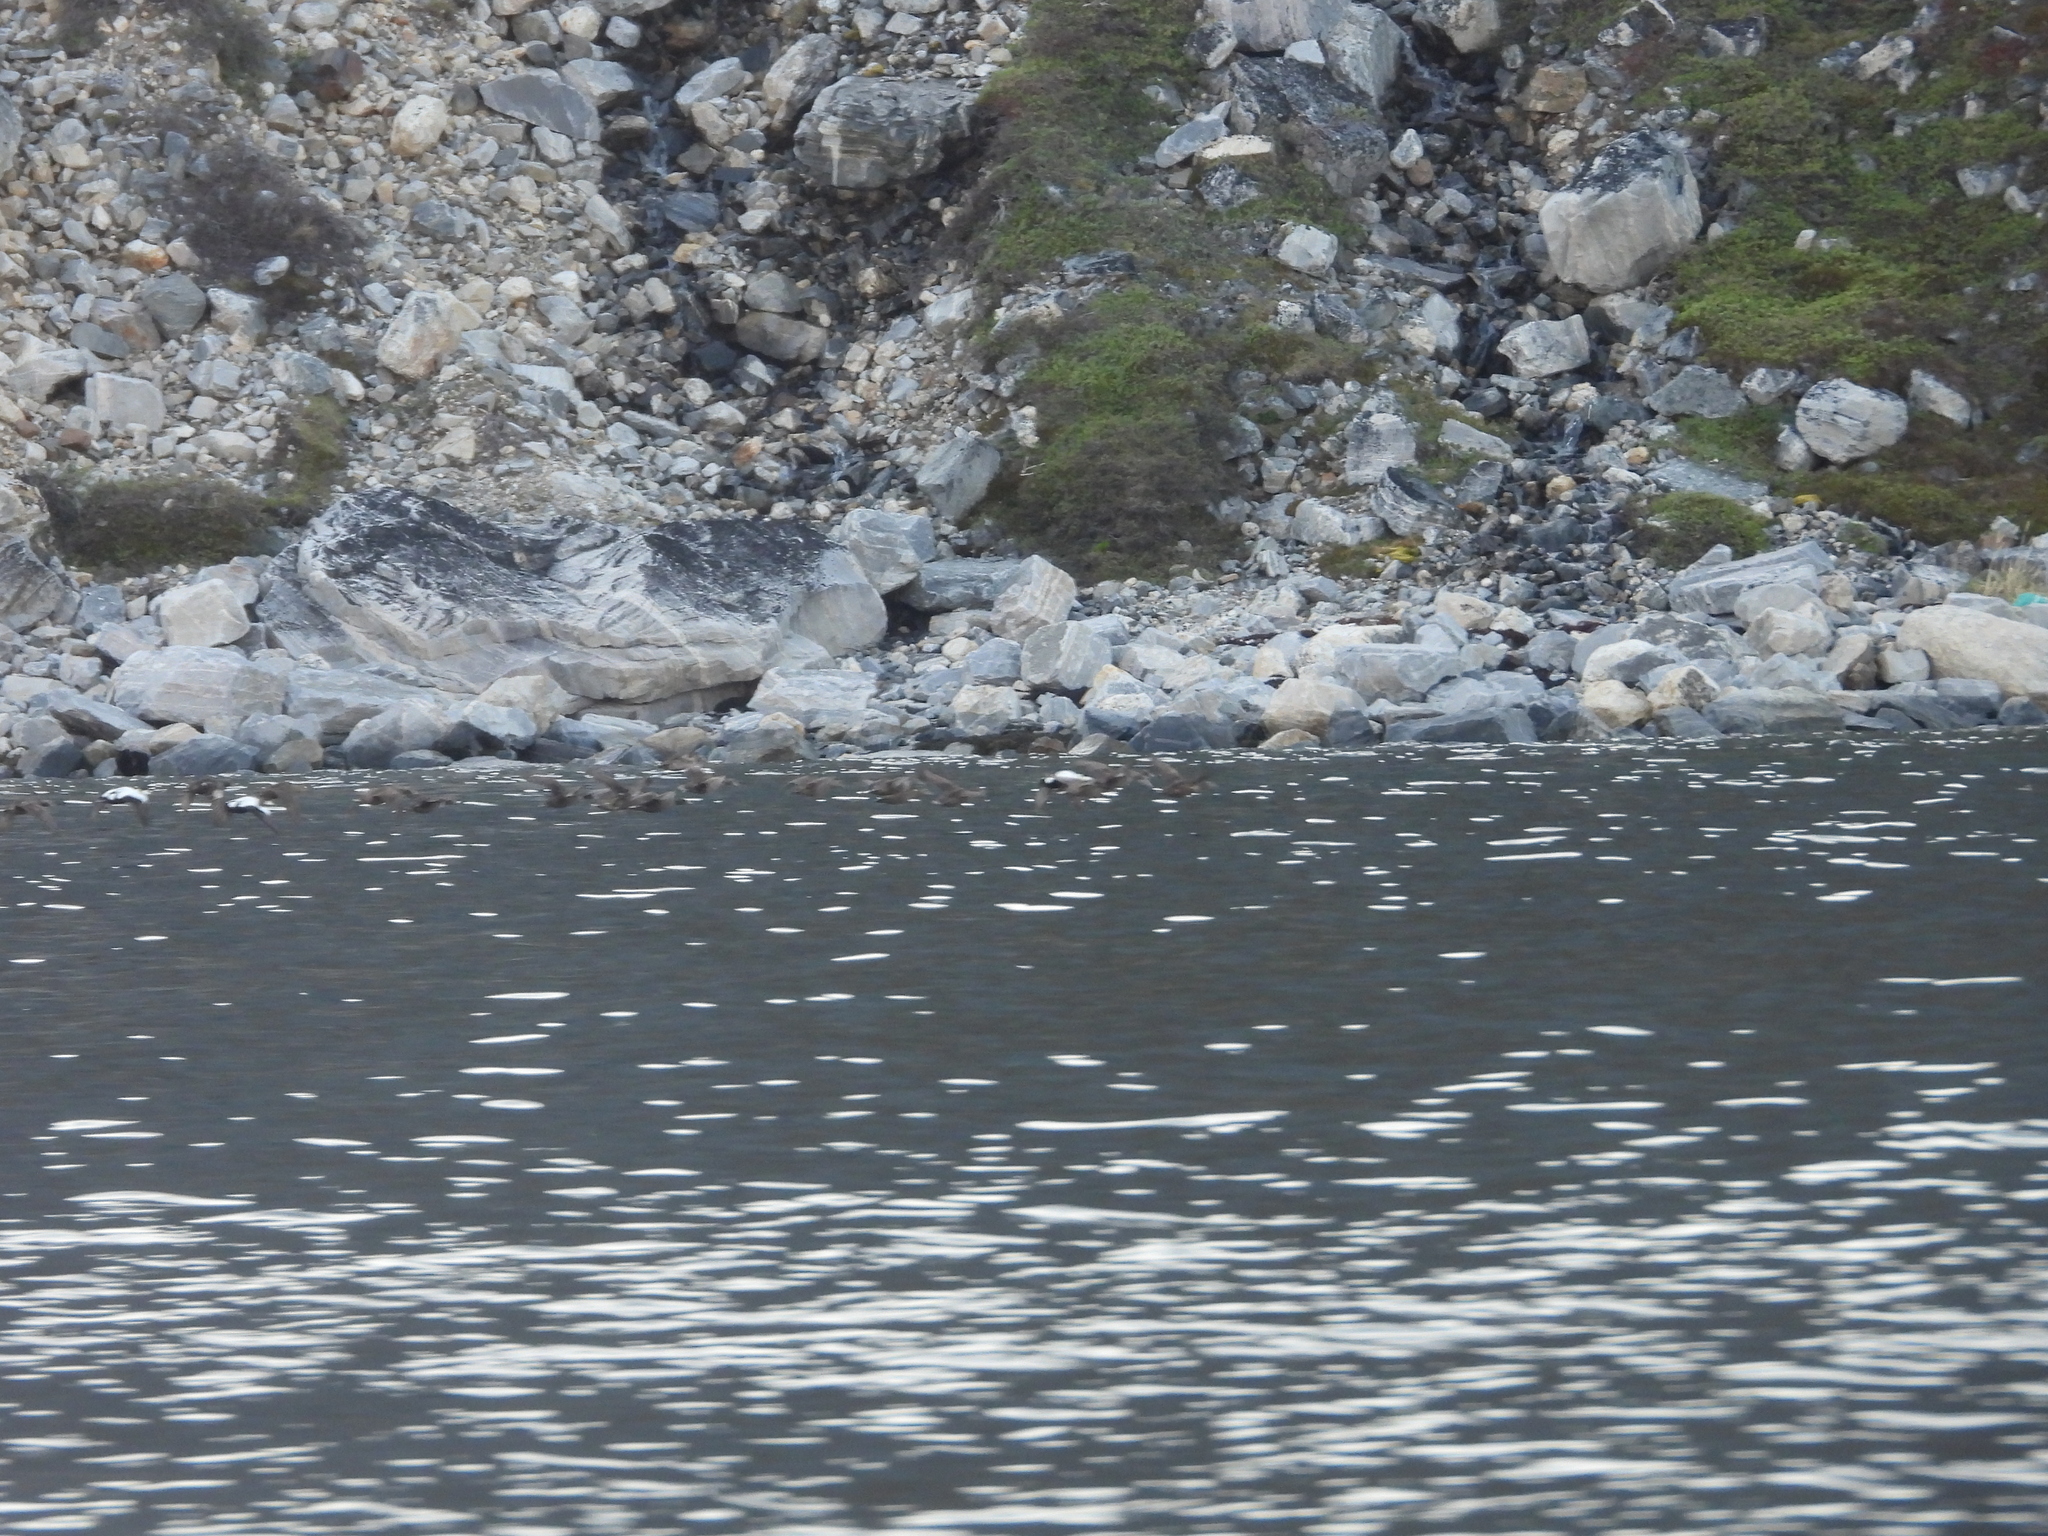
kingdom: Animalia
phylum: Chordata
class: Aves
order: Anseriformes
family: Anatidae
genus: Somateria
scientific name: Somateria mollissima
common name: Common eider
